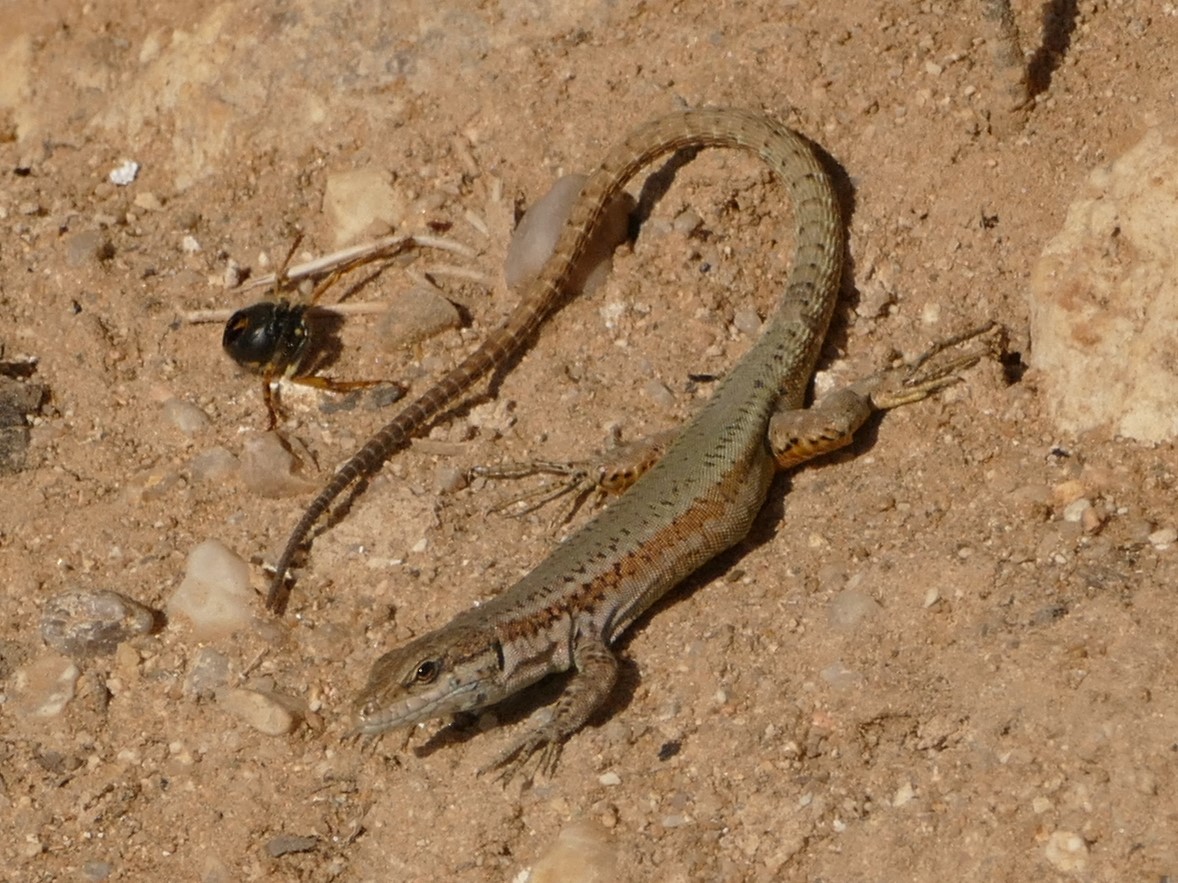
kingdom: Animalia
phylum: Chordata
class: Squamata
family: Lacertidae
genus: Podarcis
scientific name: Podarcis virescens
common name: Geniez’s wall lizard
